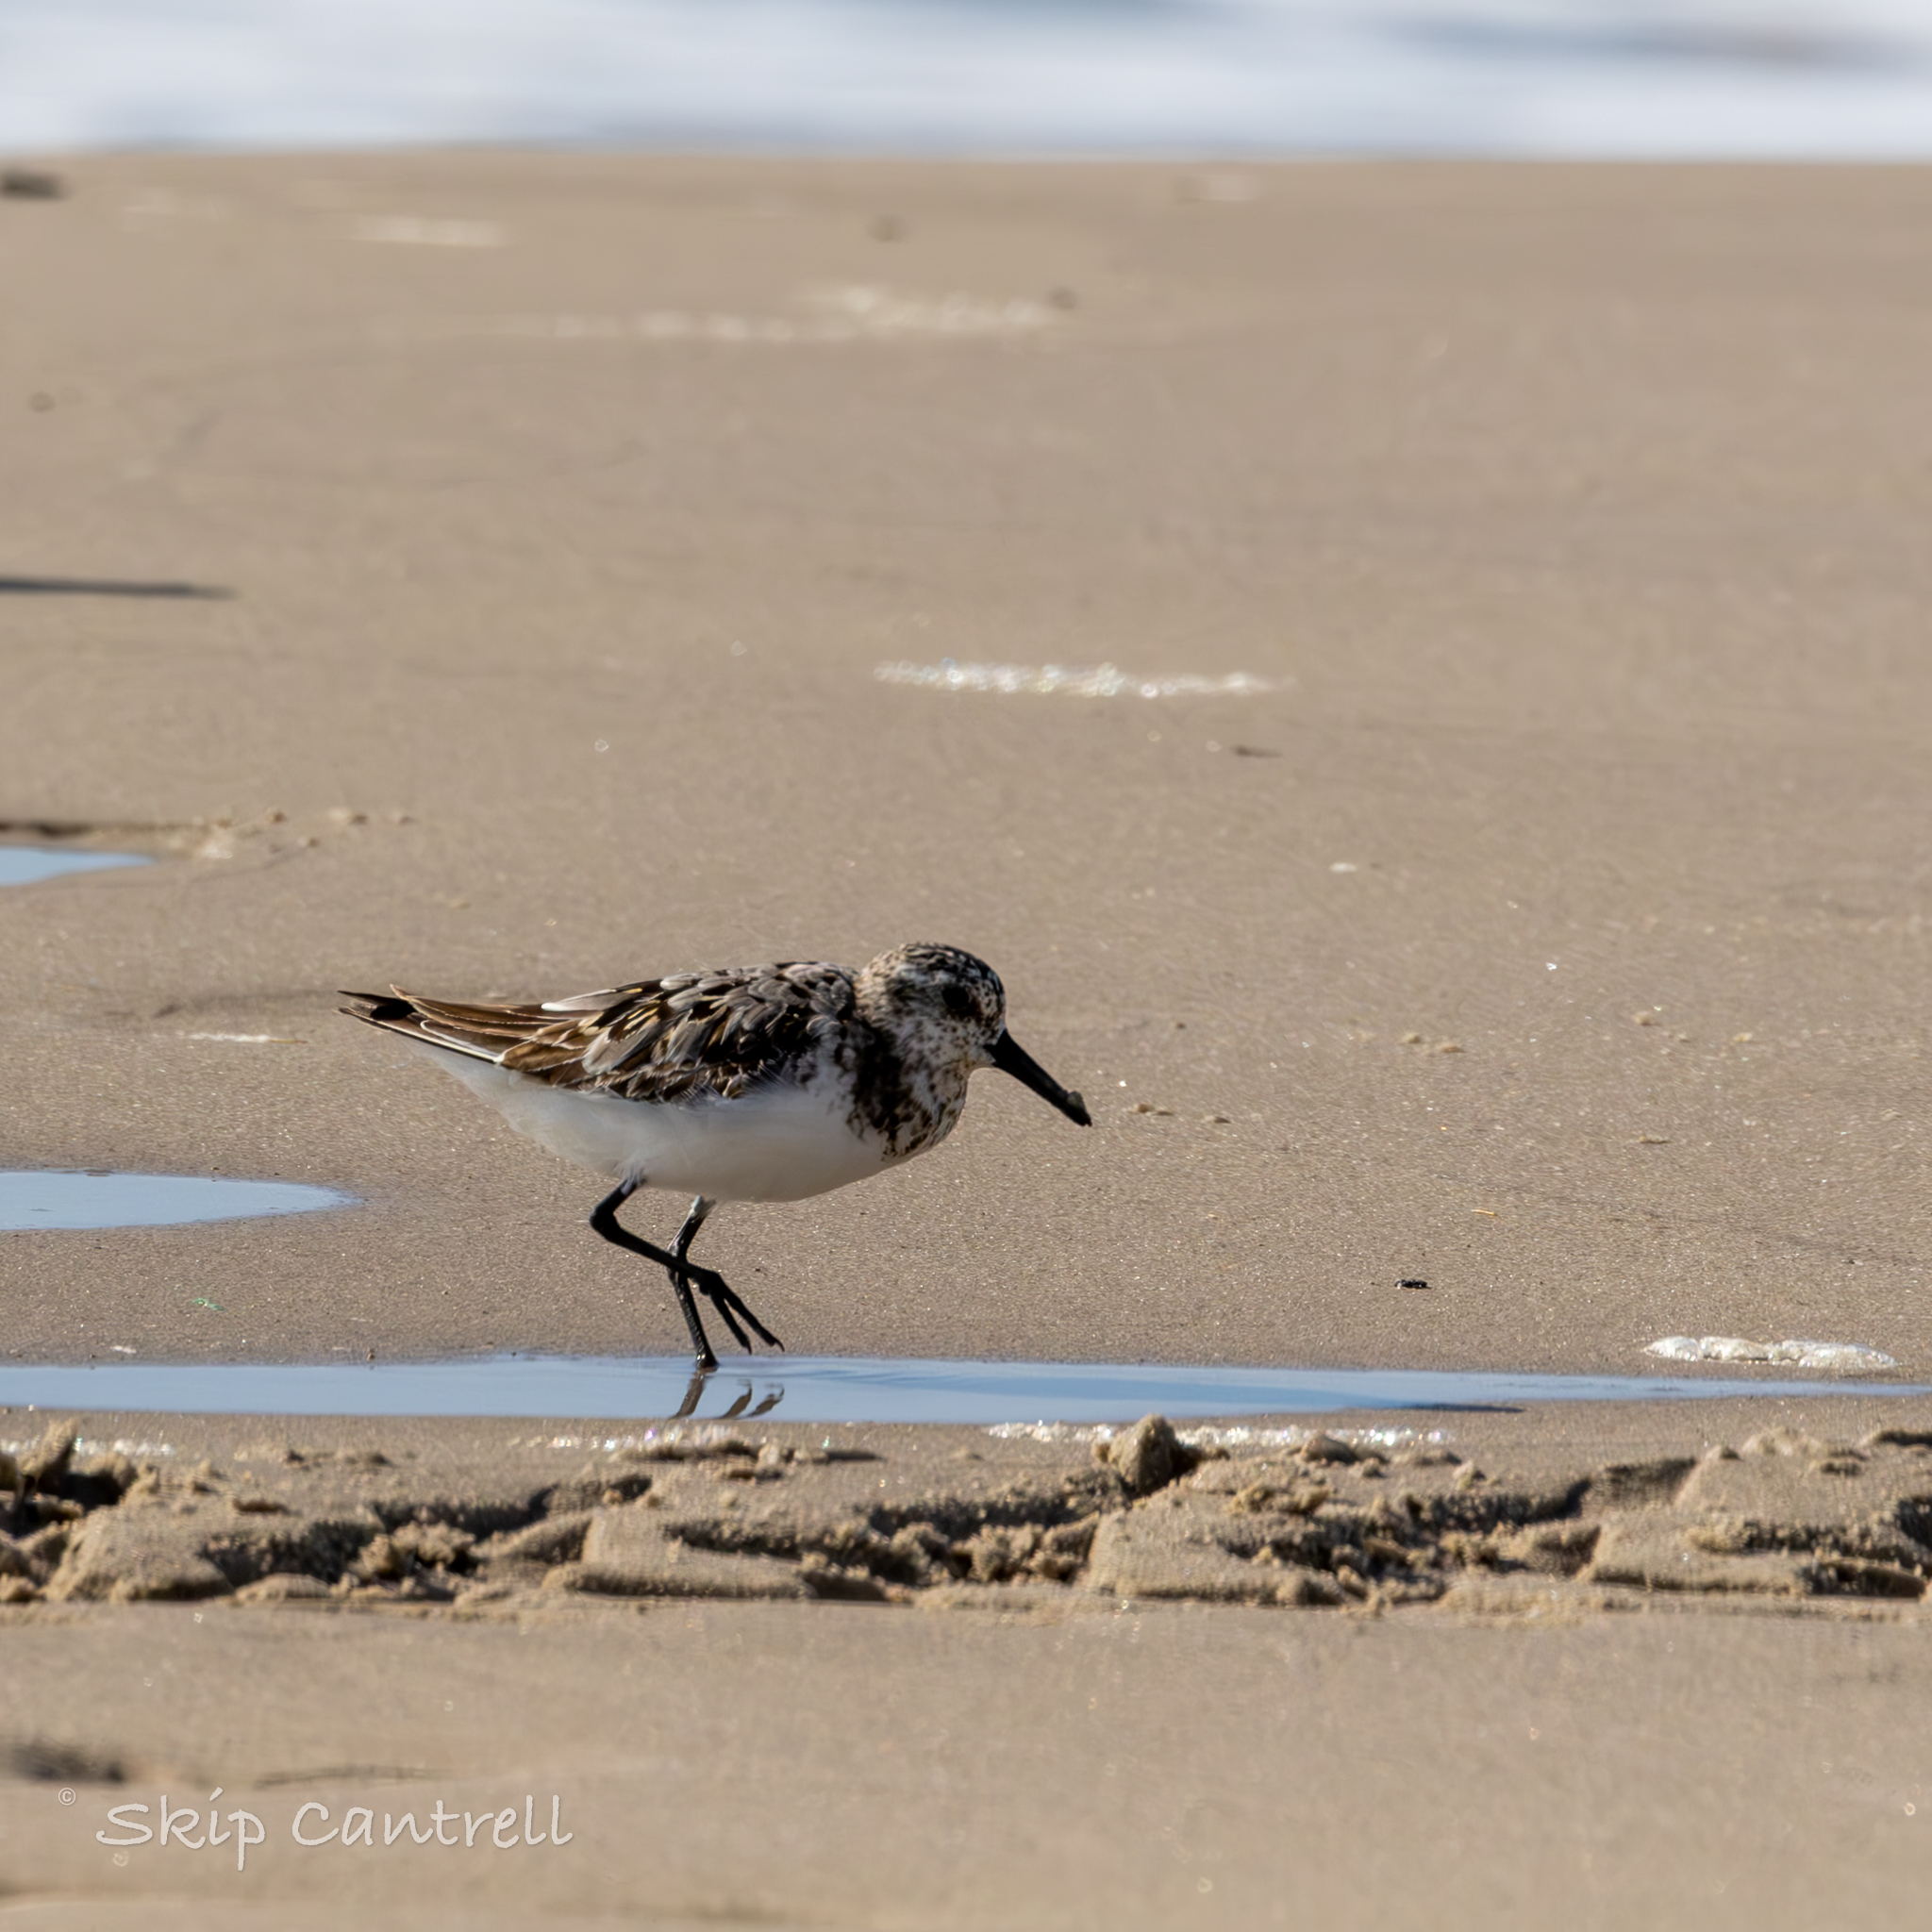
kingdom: Animalia
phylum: Chordata
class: Aves
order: Charadriiformes
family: Scolopacidae
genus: Calidris
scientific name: Calidris alba
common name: Sanderling
